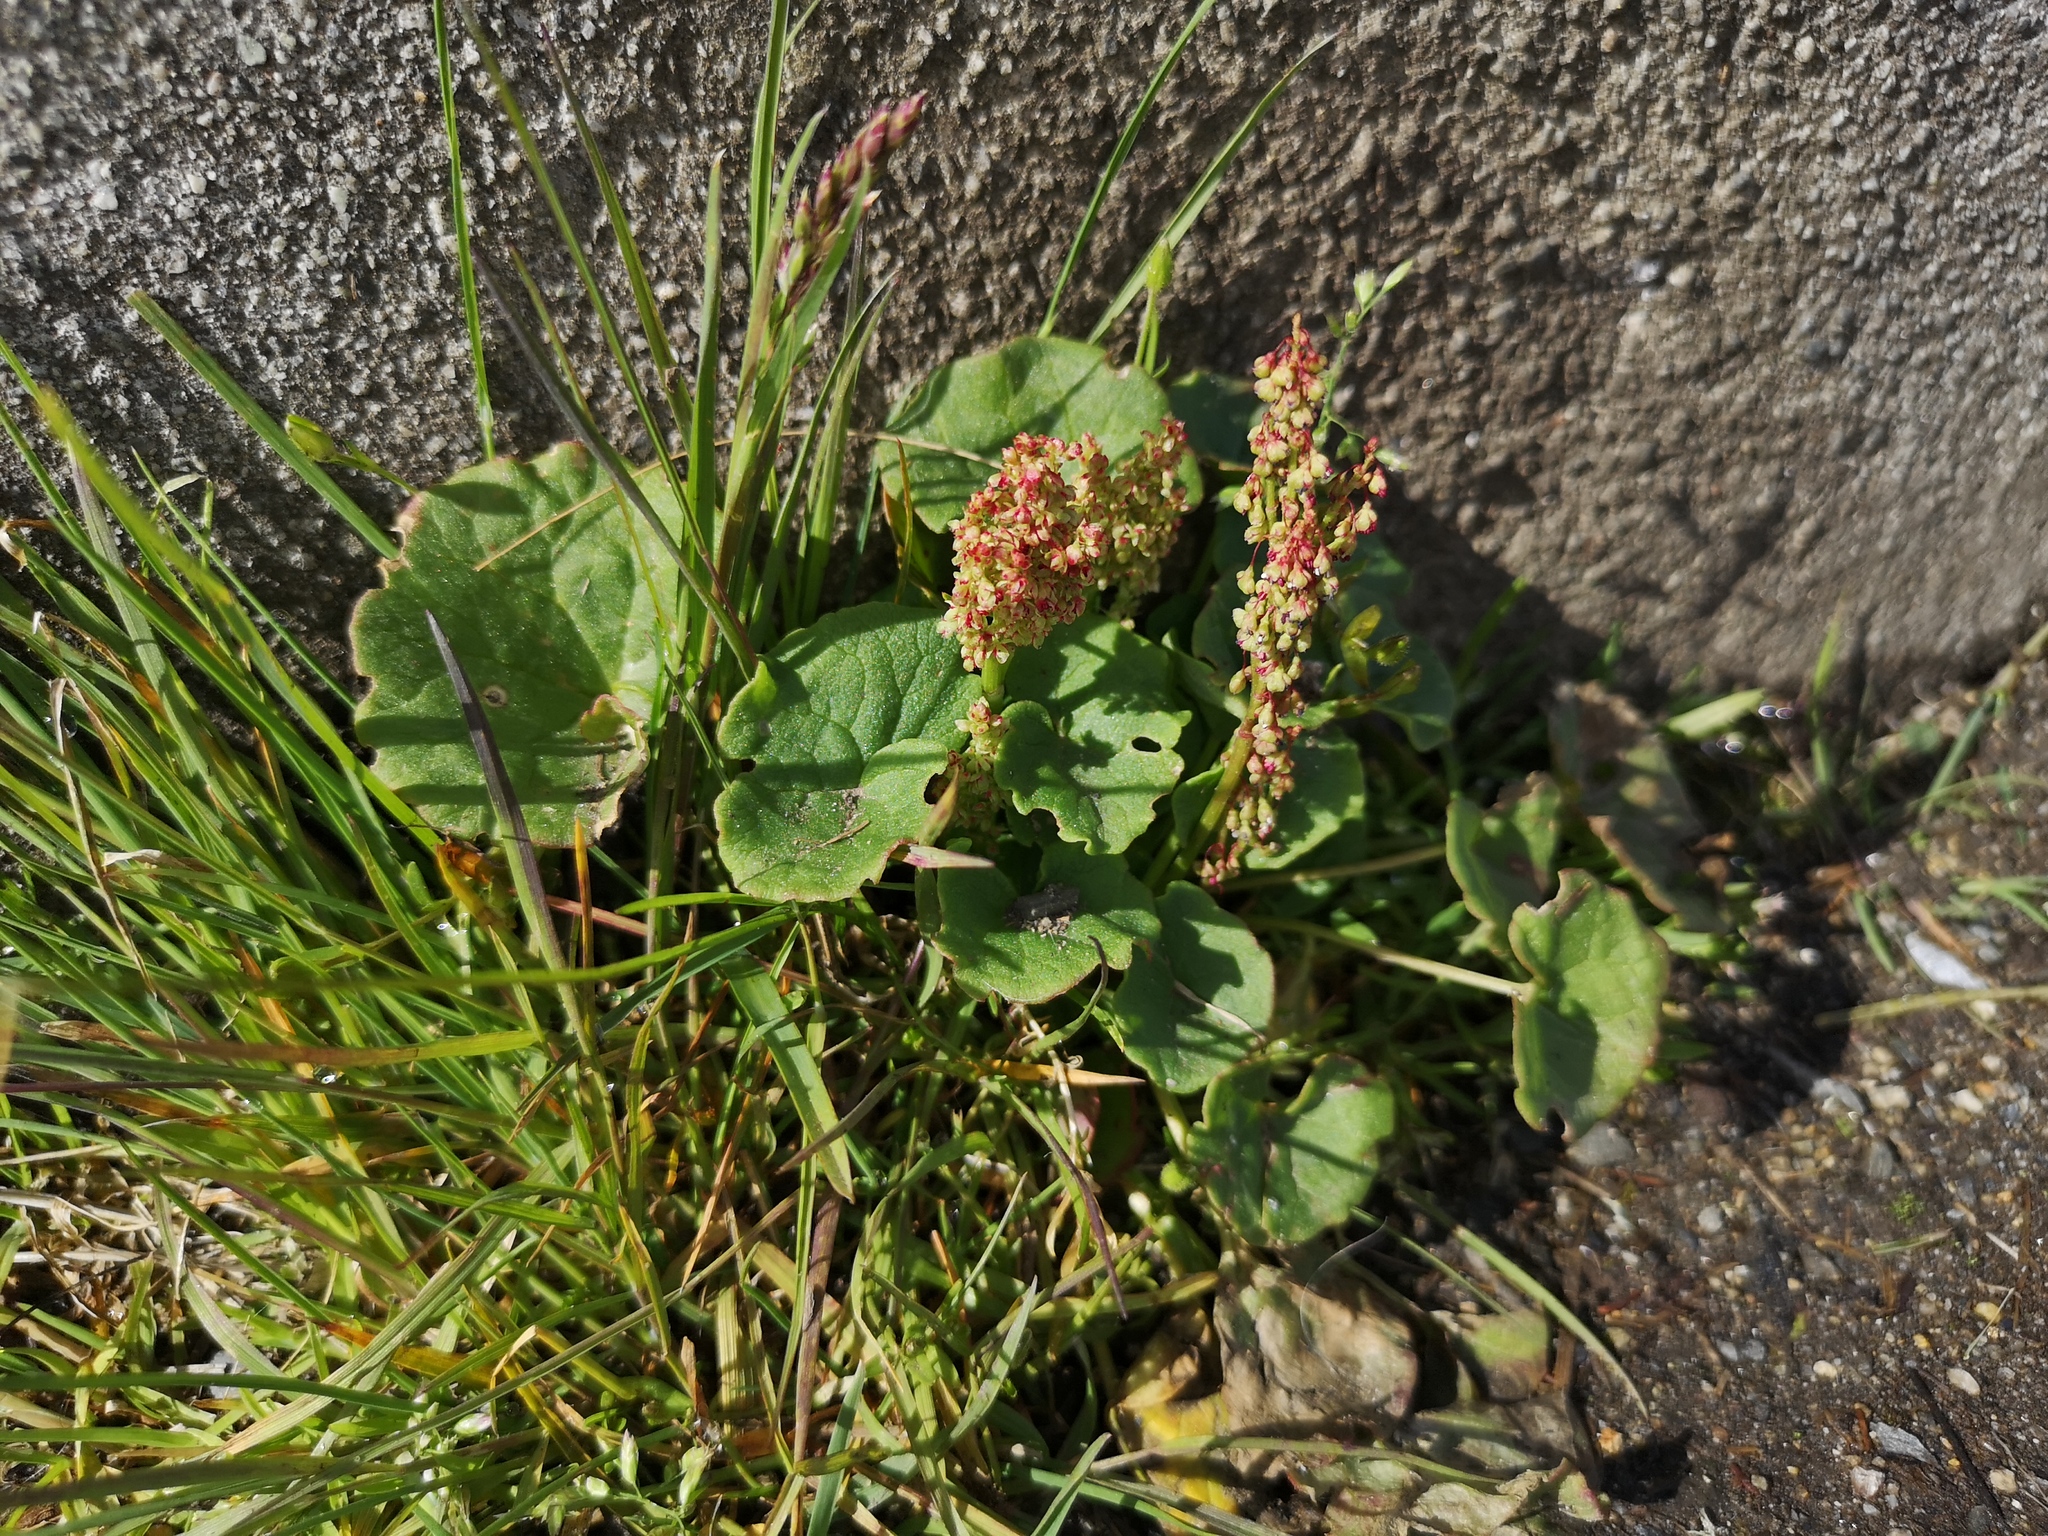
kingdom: Plantae
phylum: Tracheophyta
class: Magnoliopsida
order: Caryophyllales
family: Polygonaceae
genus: Oxyria
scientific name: Oxyria digyna
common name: Alpine mountain-sorrel
